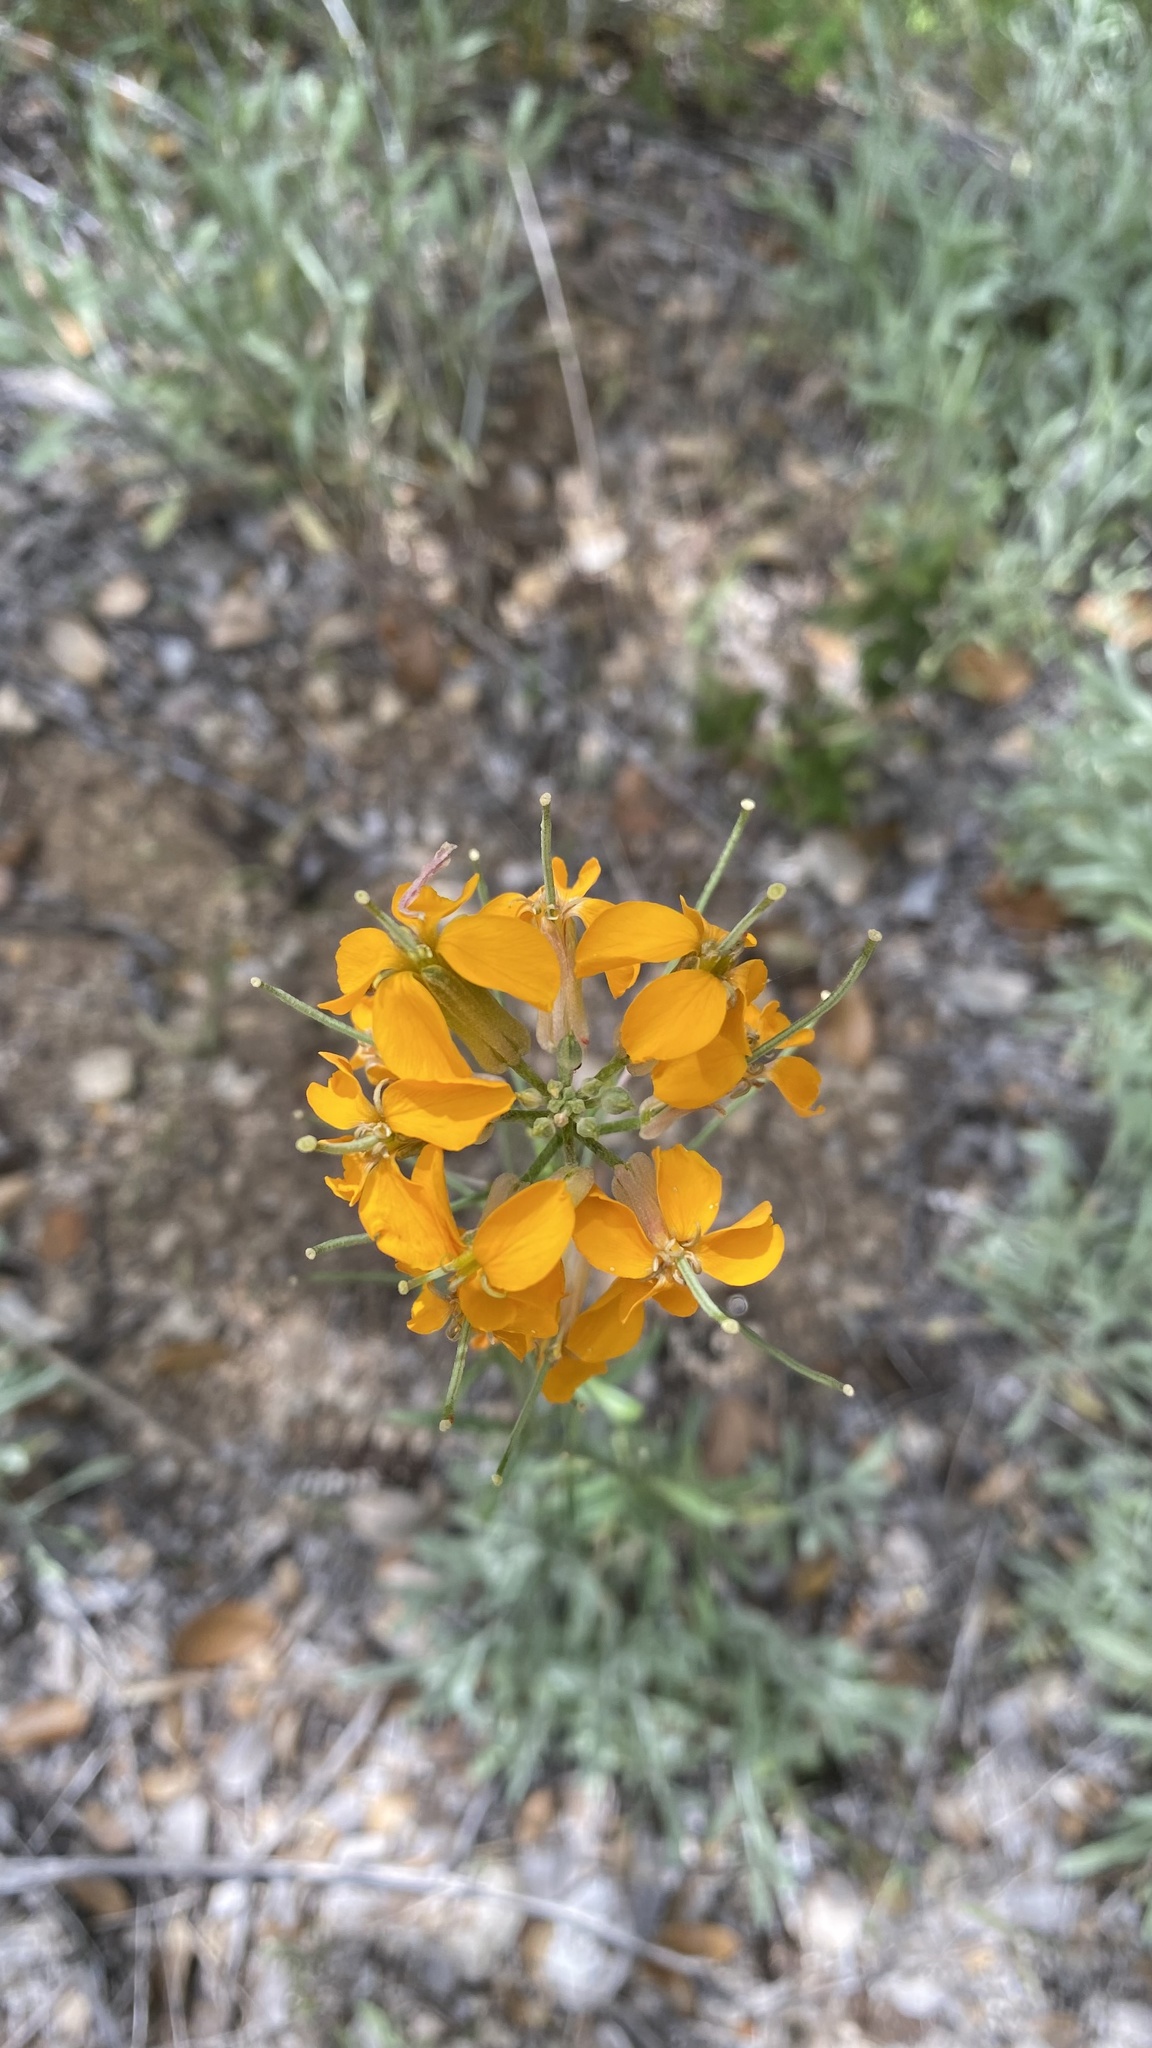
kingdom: Plantae
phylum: Tracheophyta
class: Magnoliopsida
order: Brassicales
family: Brassicaceae
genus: Erysimum
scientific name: Erysimum capitatum
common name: Western wallflower
